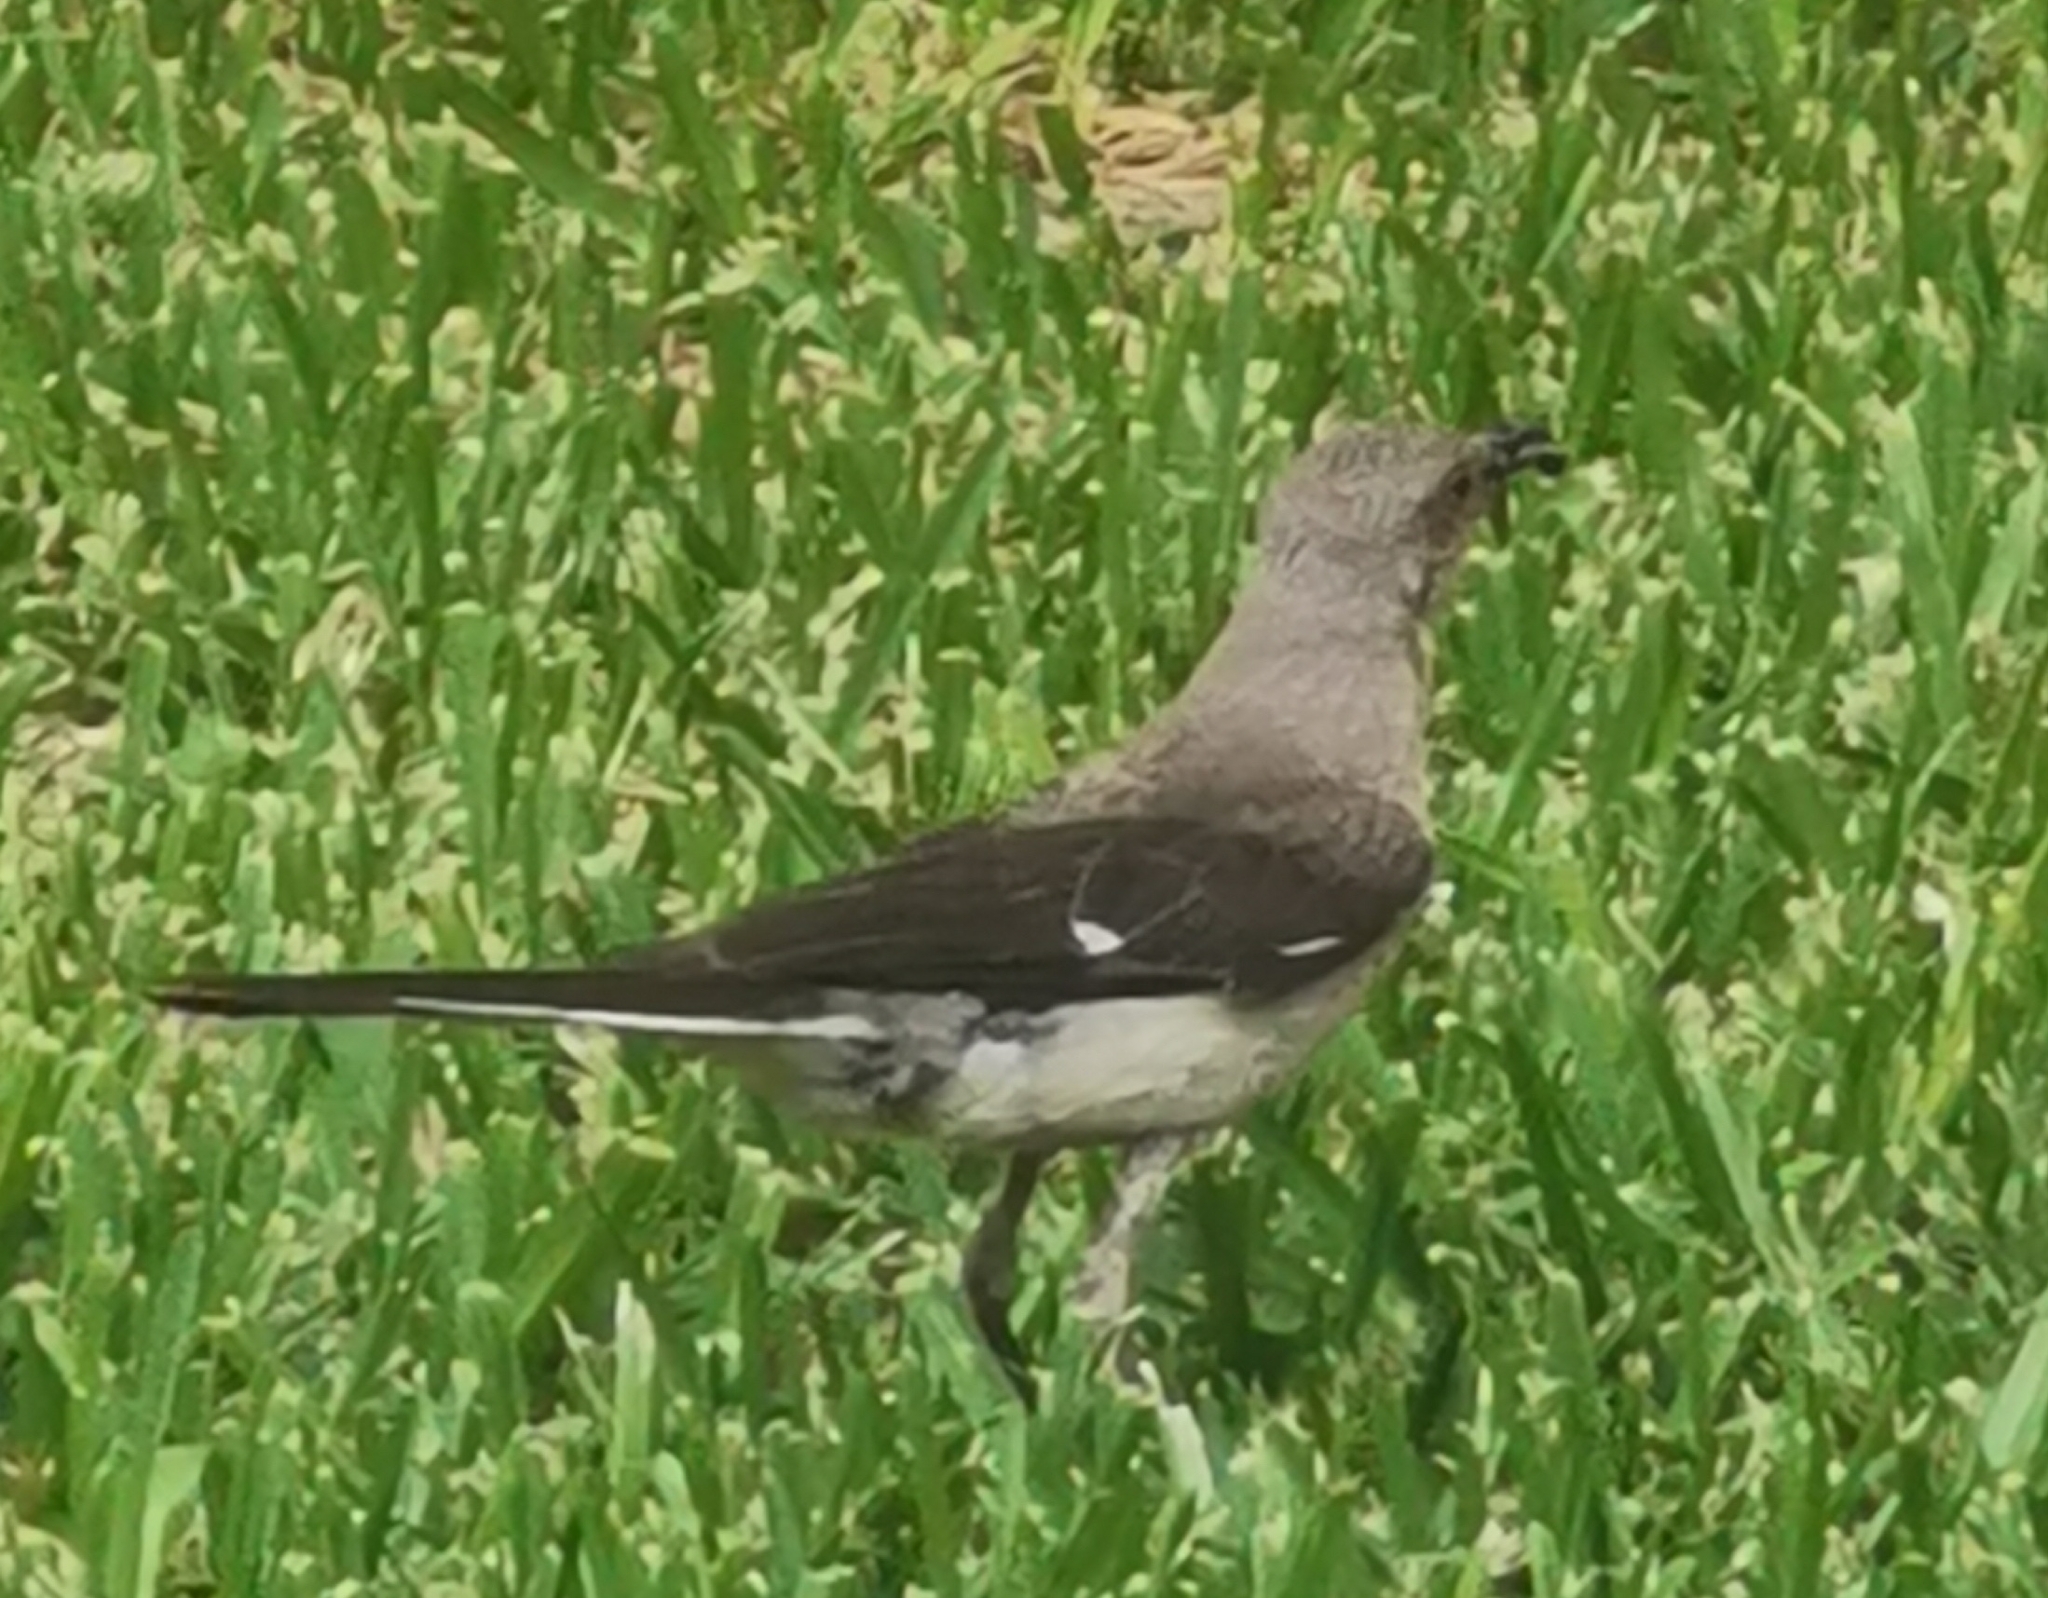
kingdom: Animalia
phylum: Chordata
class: Aves
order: Passeriformes
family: Mimidae
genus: Mimus
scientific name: Mimus polyglottos
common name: Northern mockingbird
